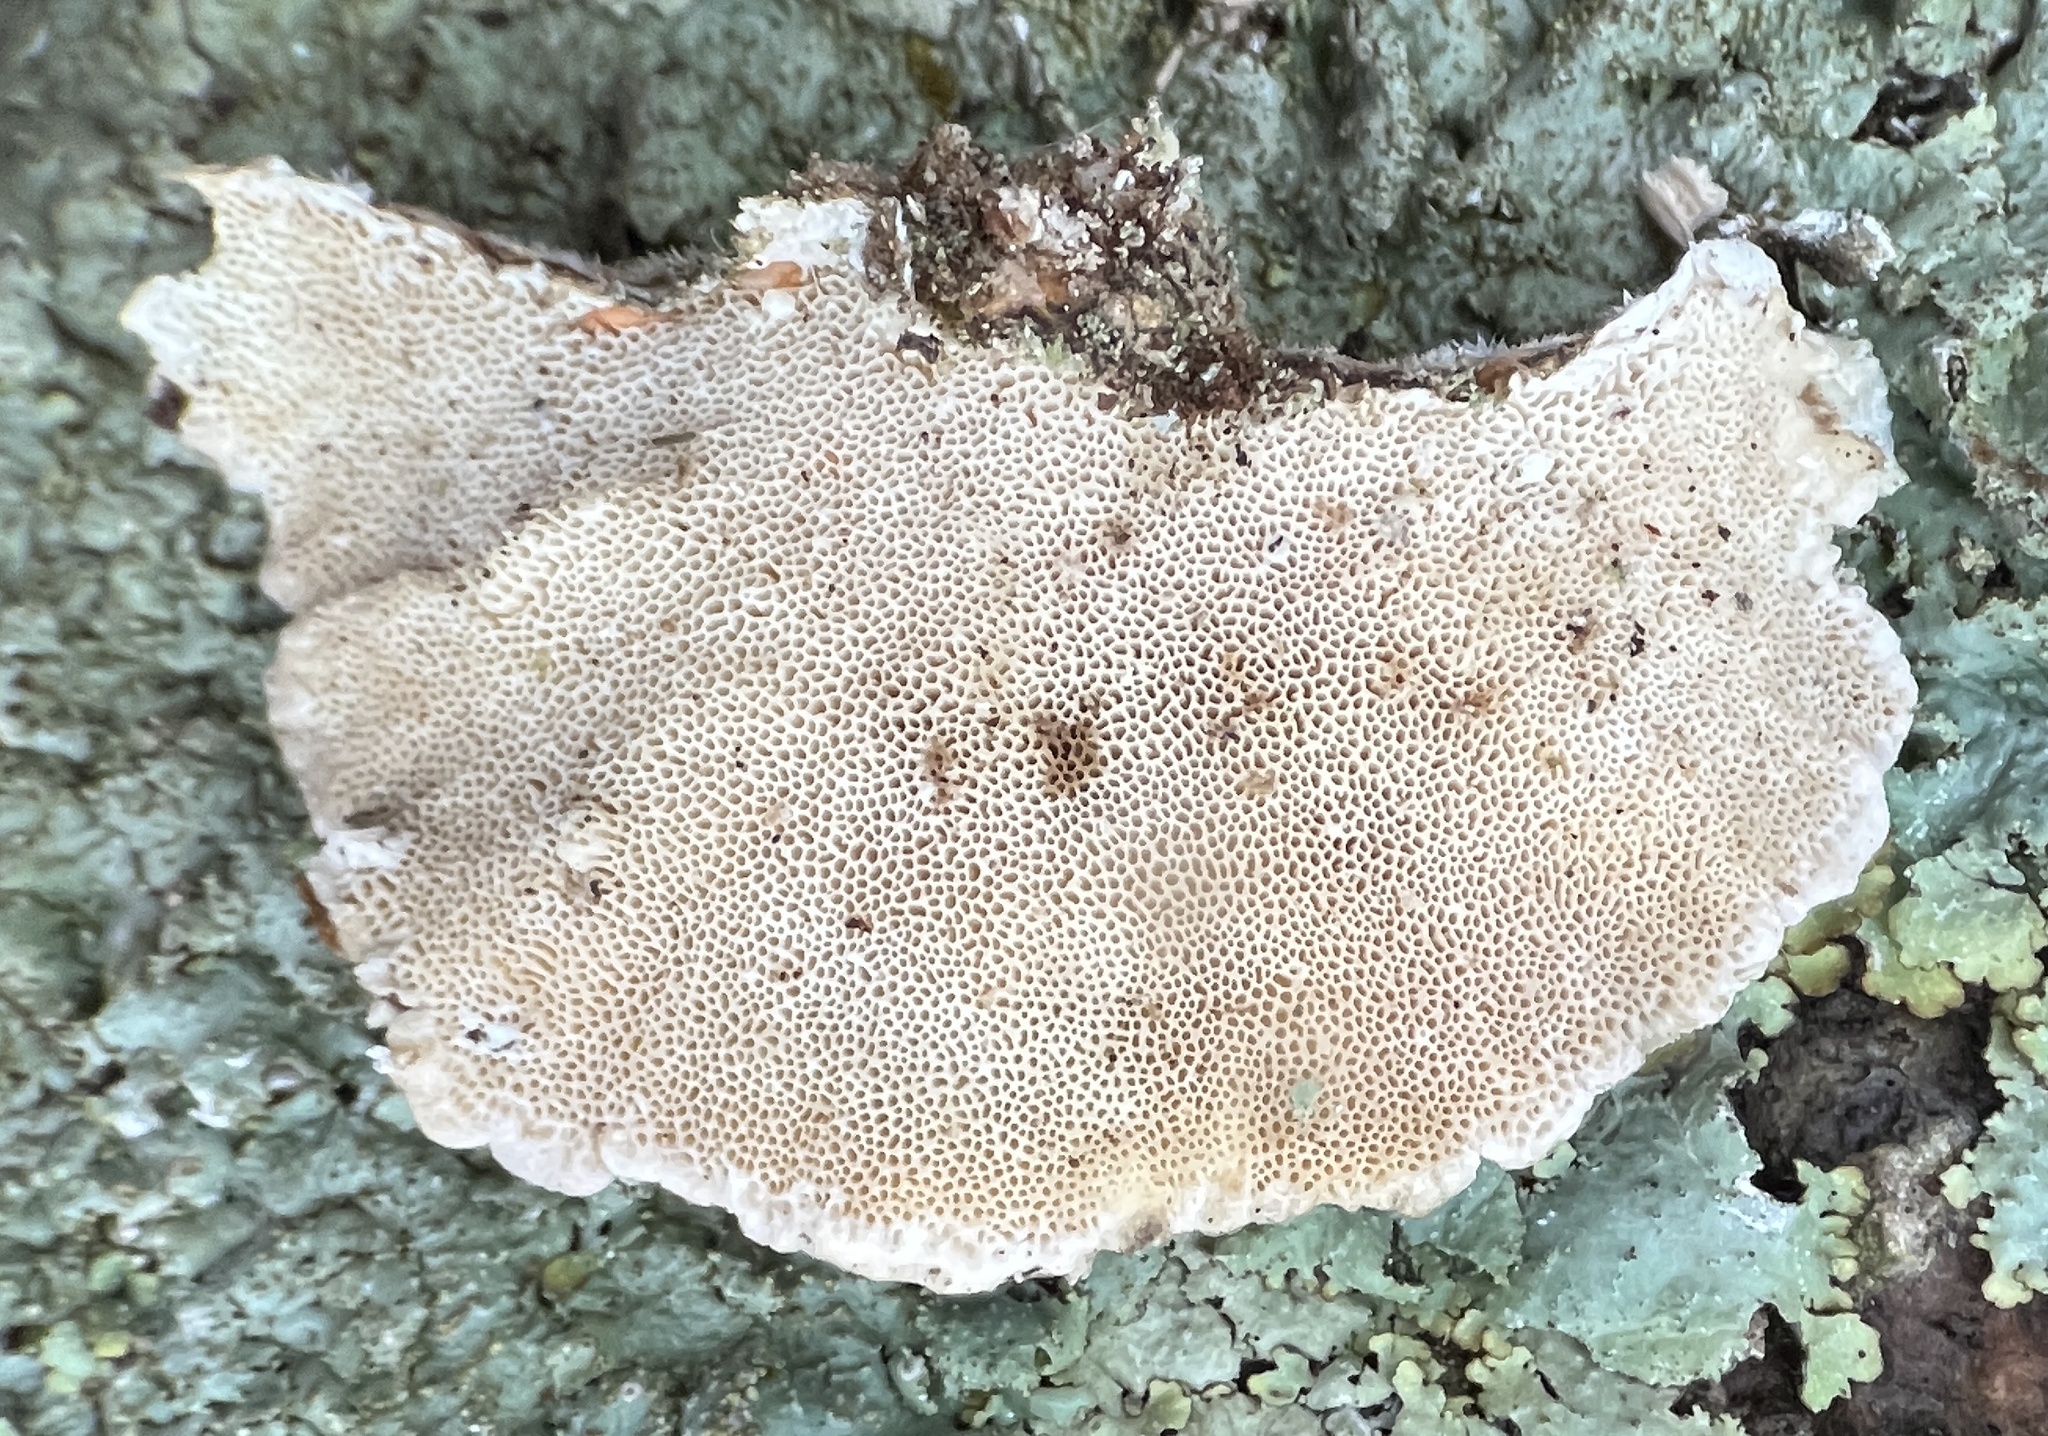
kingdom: Fungi
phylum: Basidiomycota
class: Agaricomycetes
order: Polyporales
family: Polyporaceae
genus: Trametes
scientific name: Trametes versicolor
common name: Turkeytail
